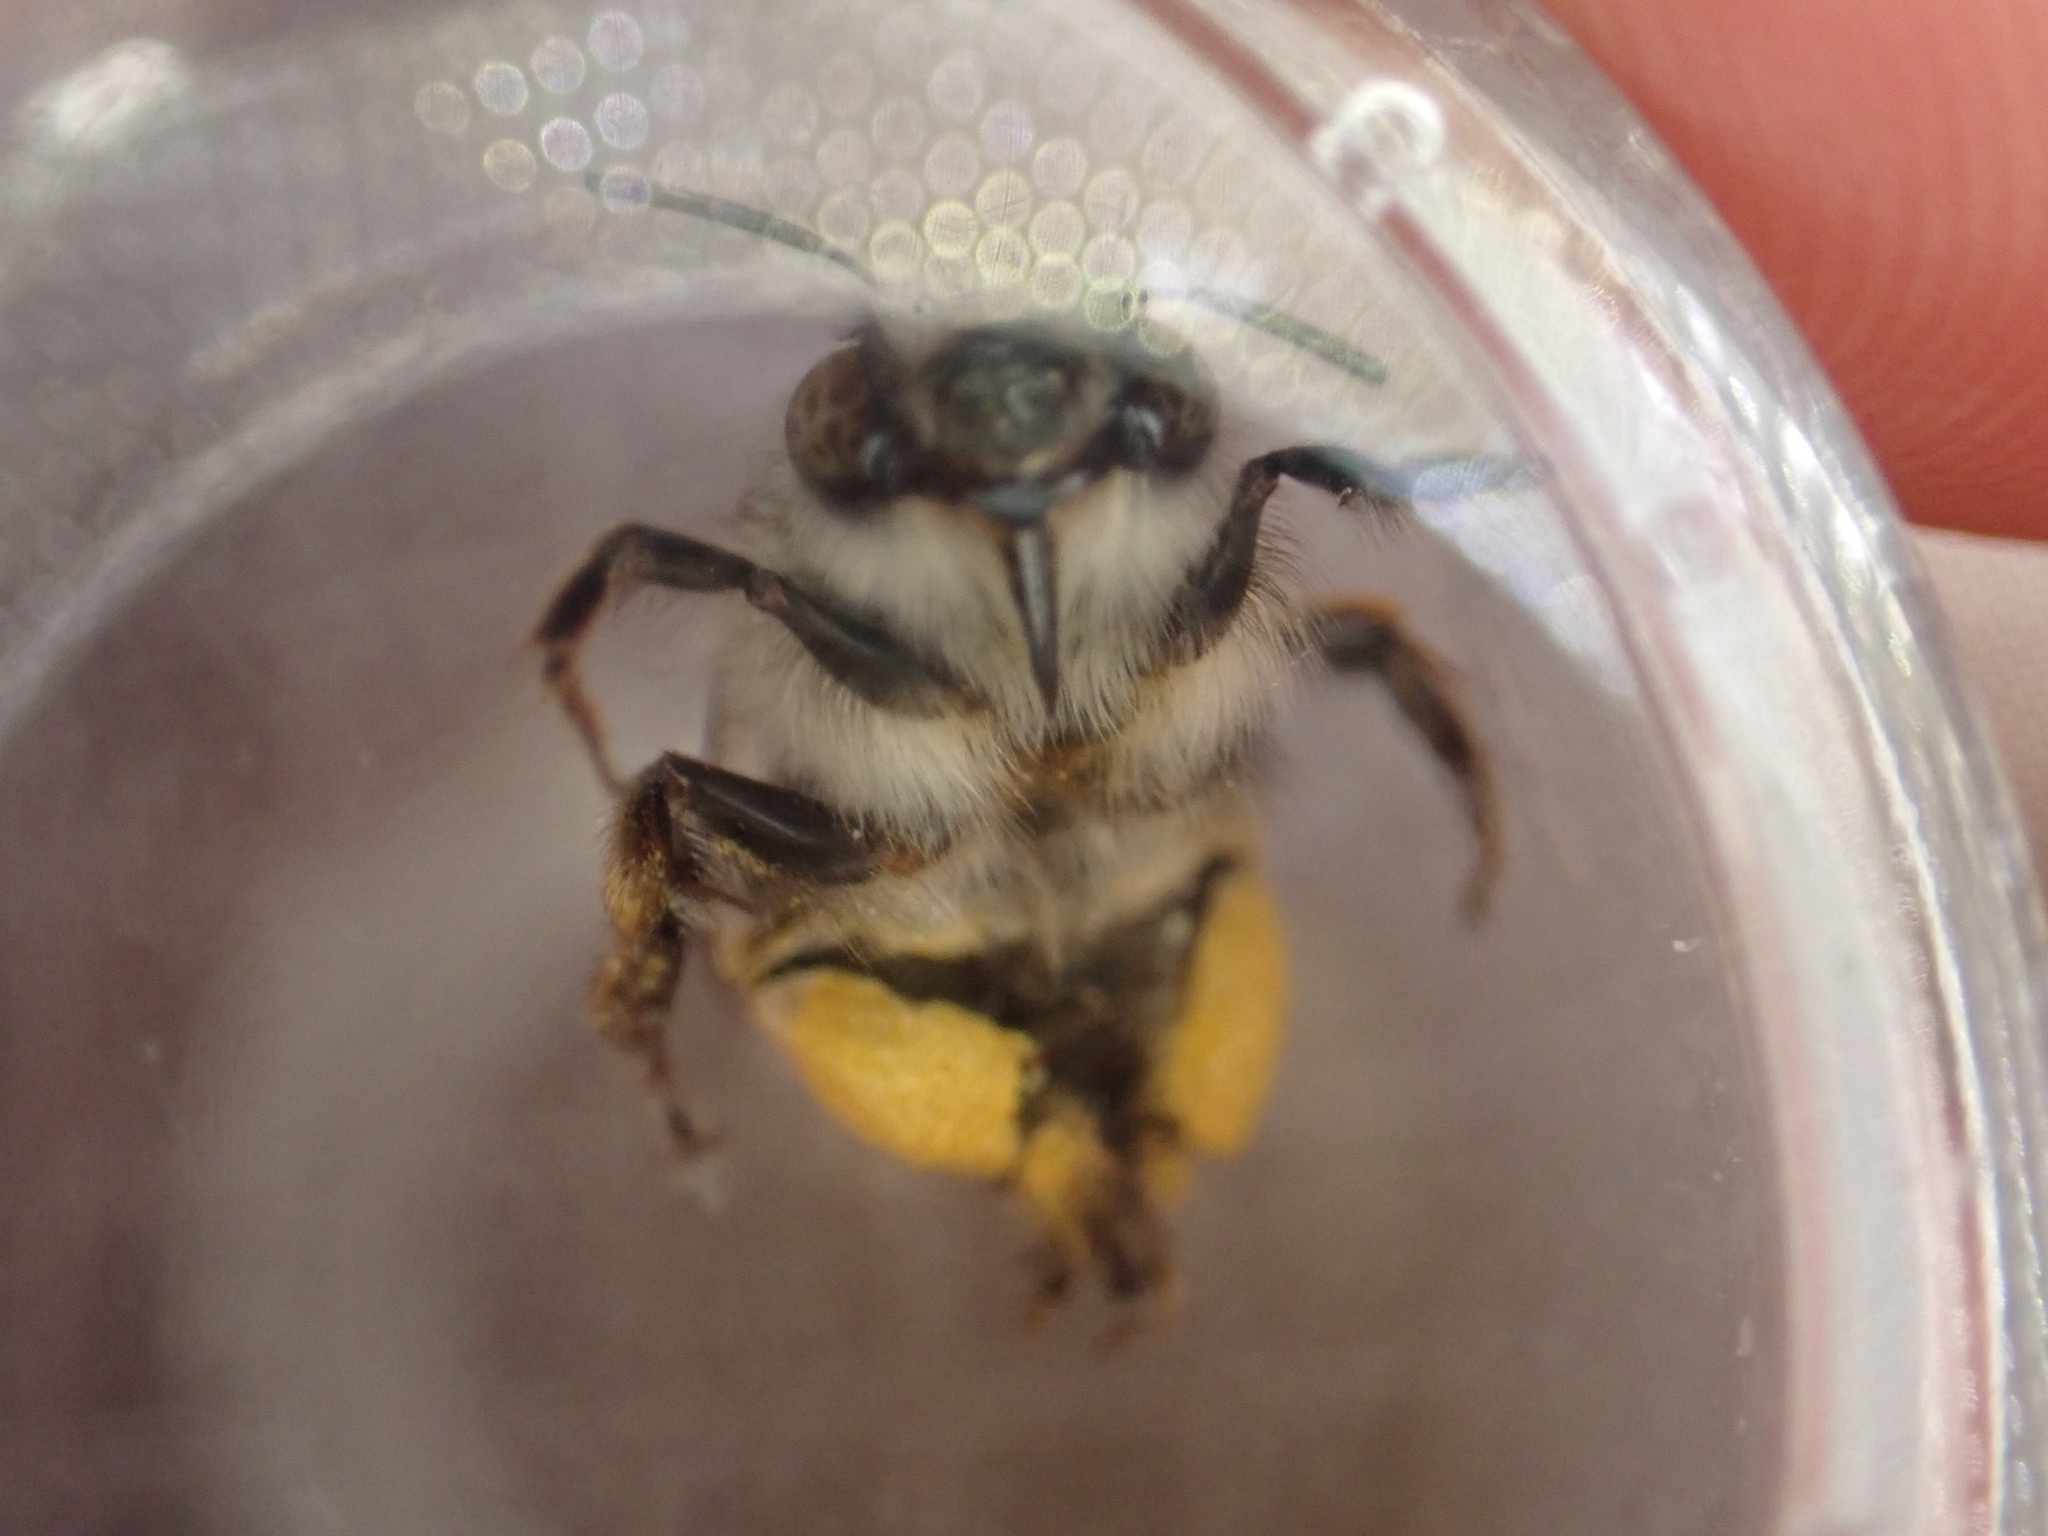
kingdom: Animalia
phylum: Arthropoda
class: Insecta
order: Hymenoptera
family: Apidae
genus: Anthophora
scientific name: Anthophora dispar
